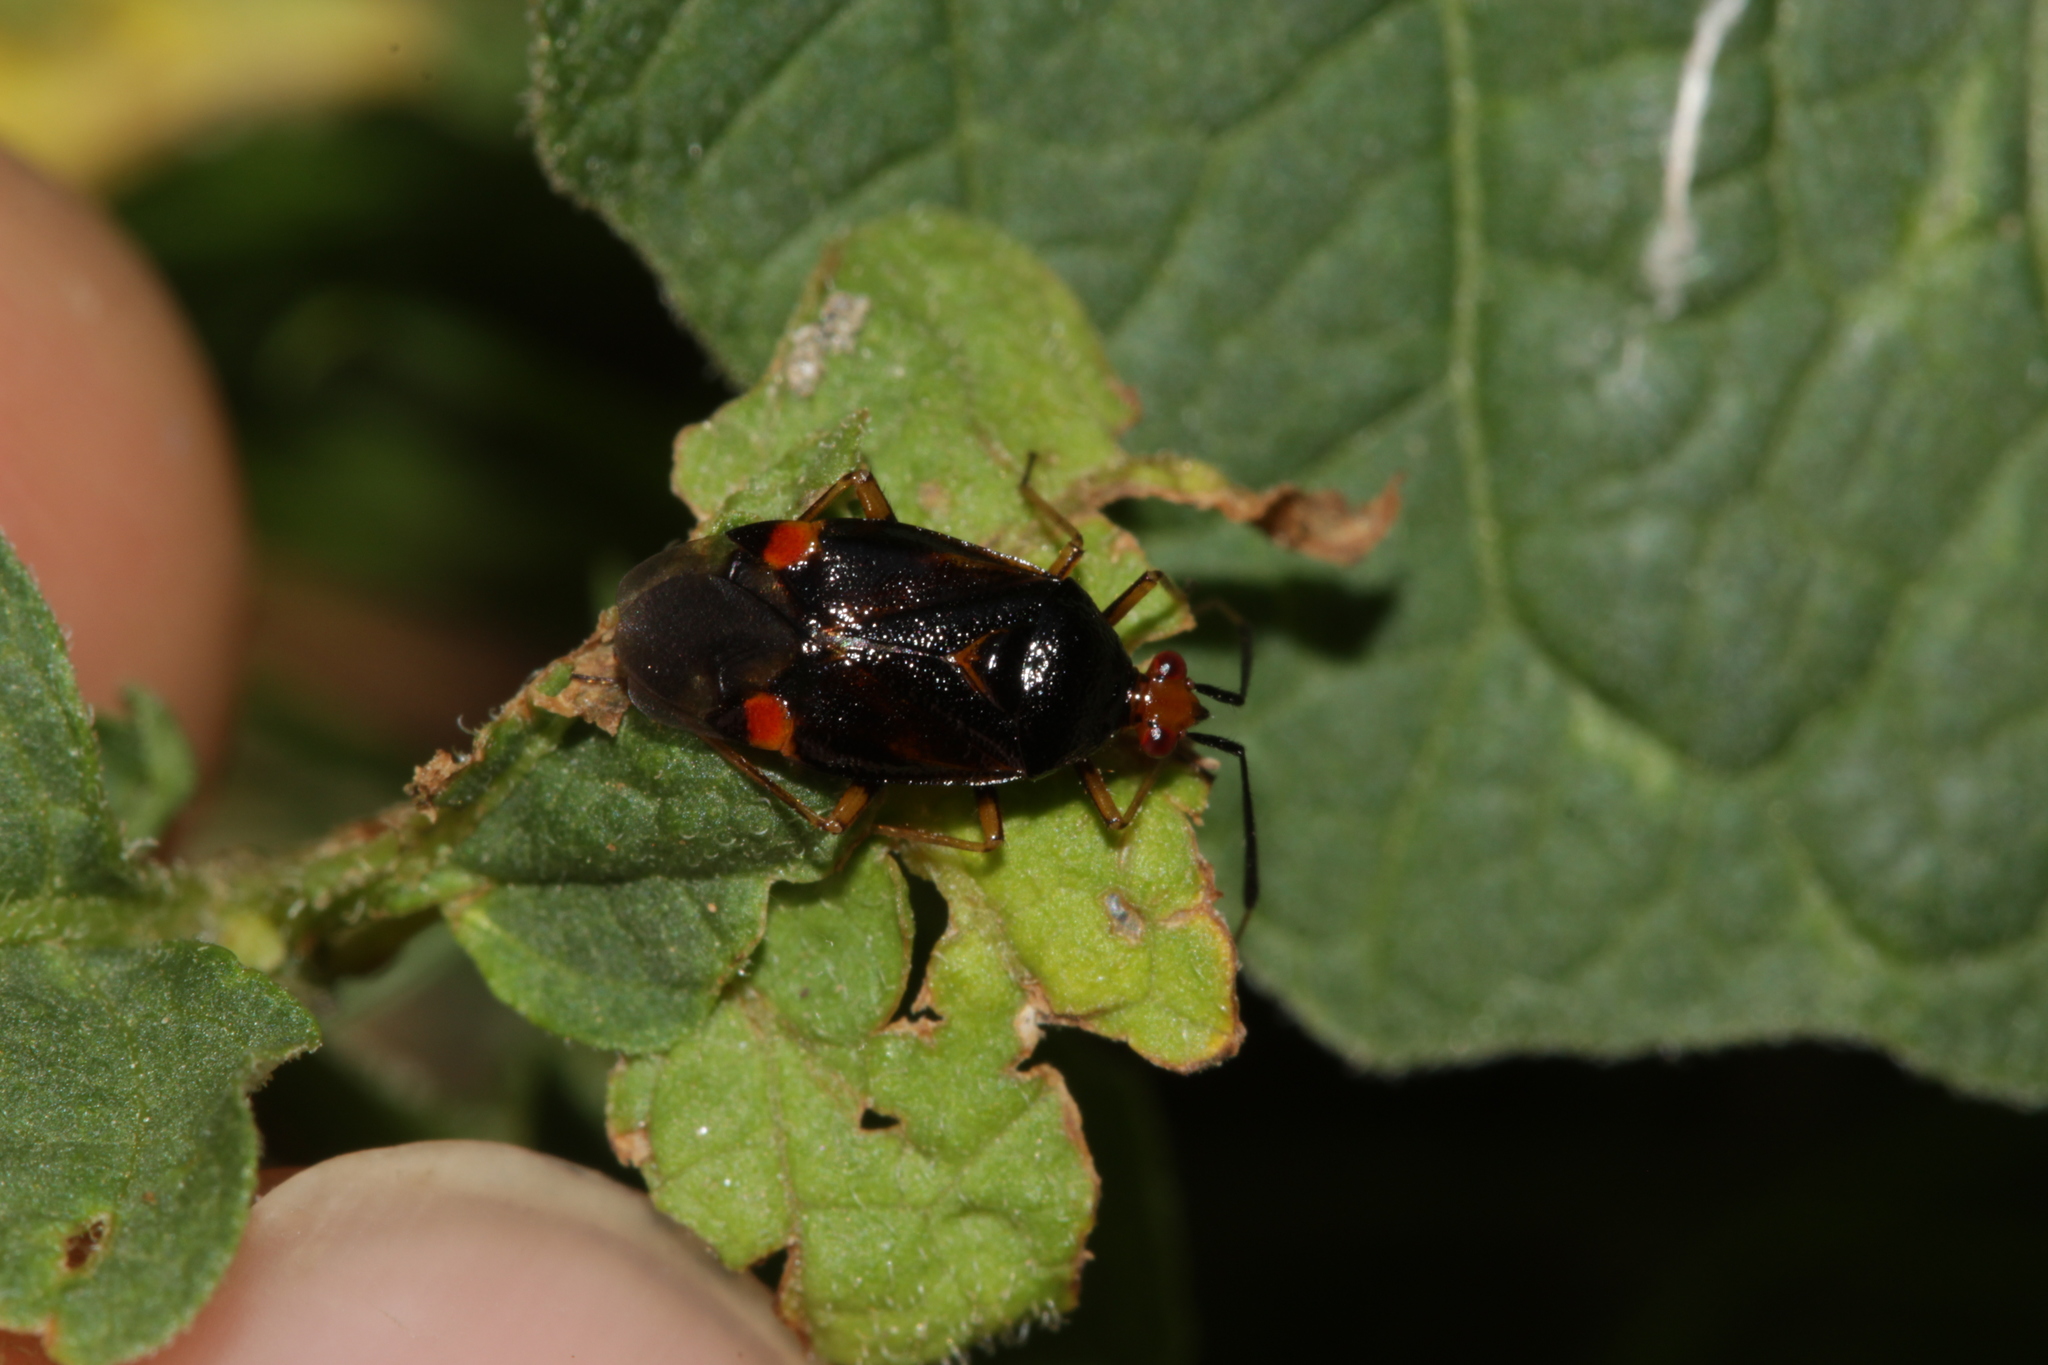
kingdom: Animalia
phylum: Arthropoda
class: Insecta
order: Hemiptera
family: Miridae
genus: Deraeocoris
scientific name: Deraeocoris ruber
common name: Plant bug
